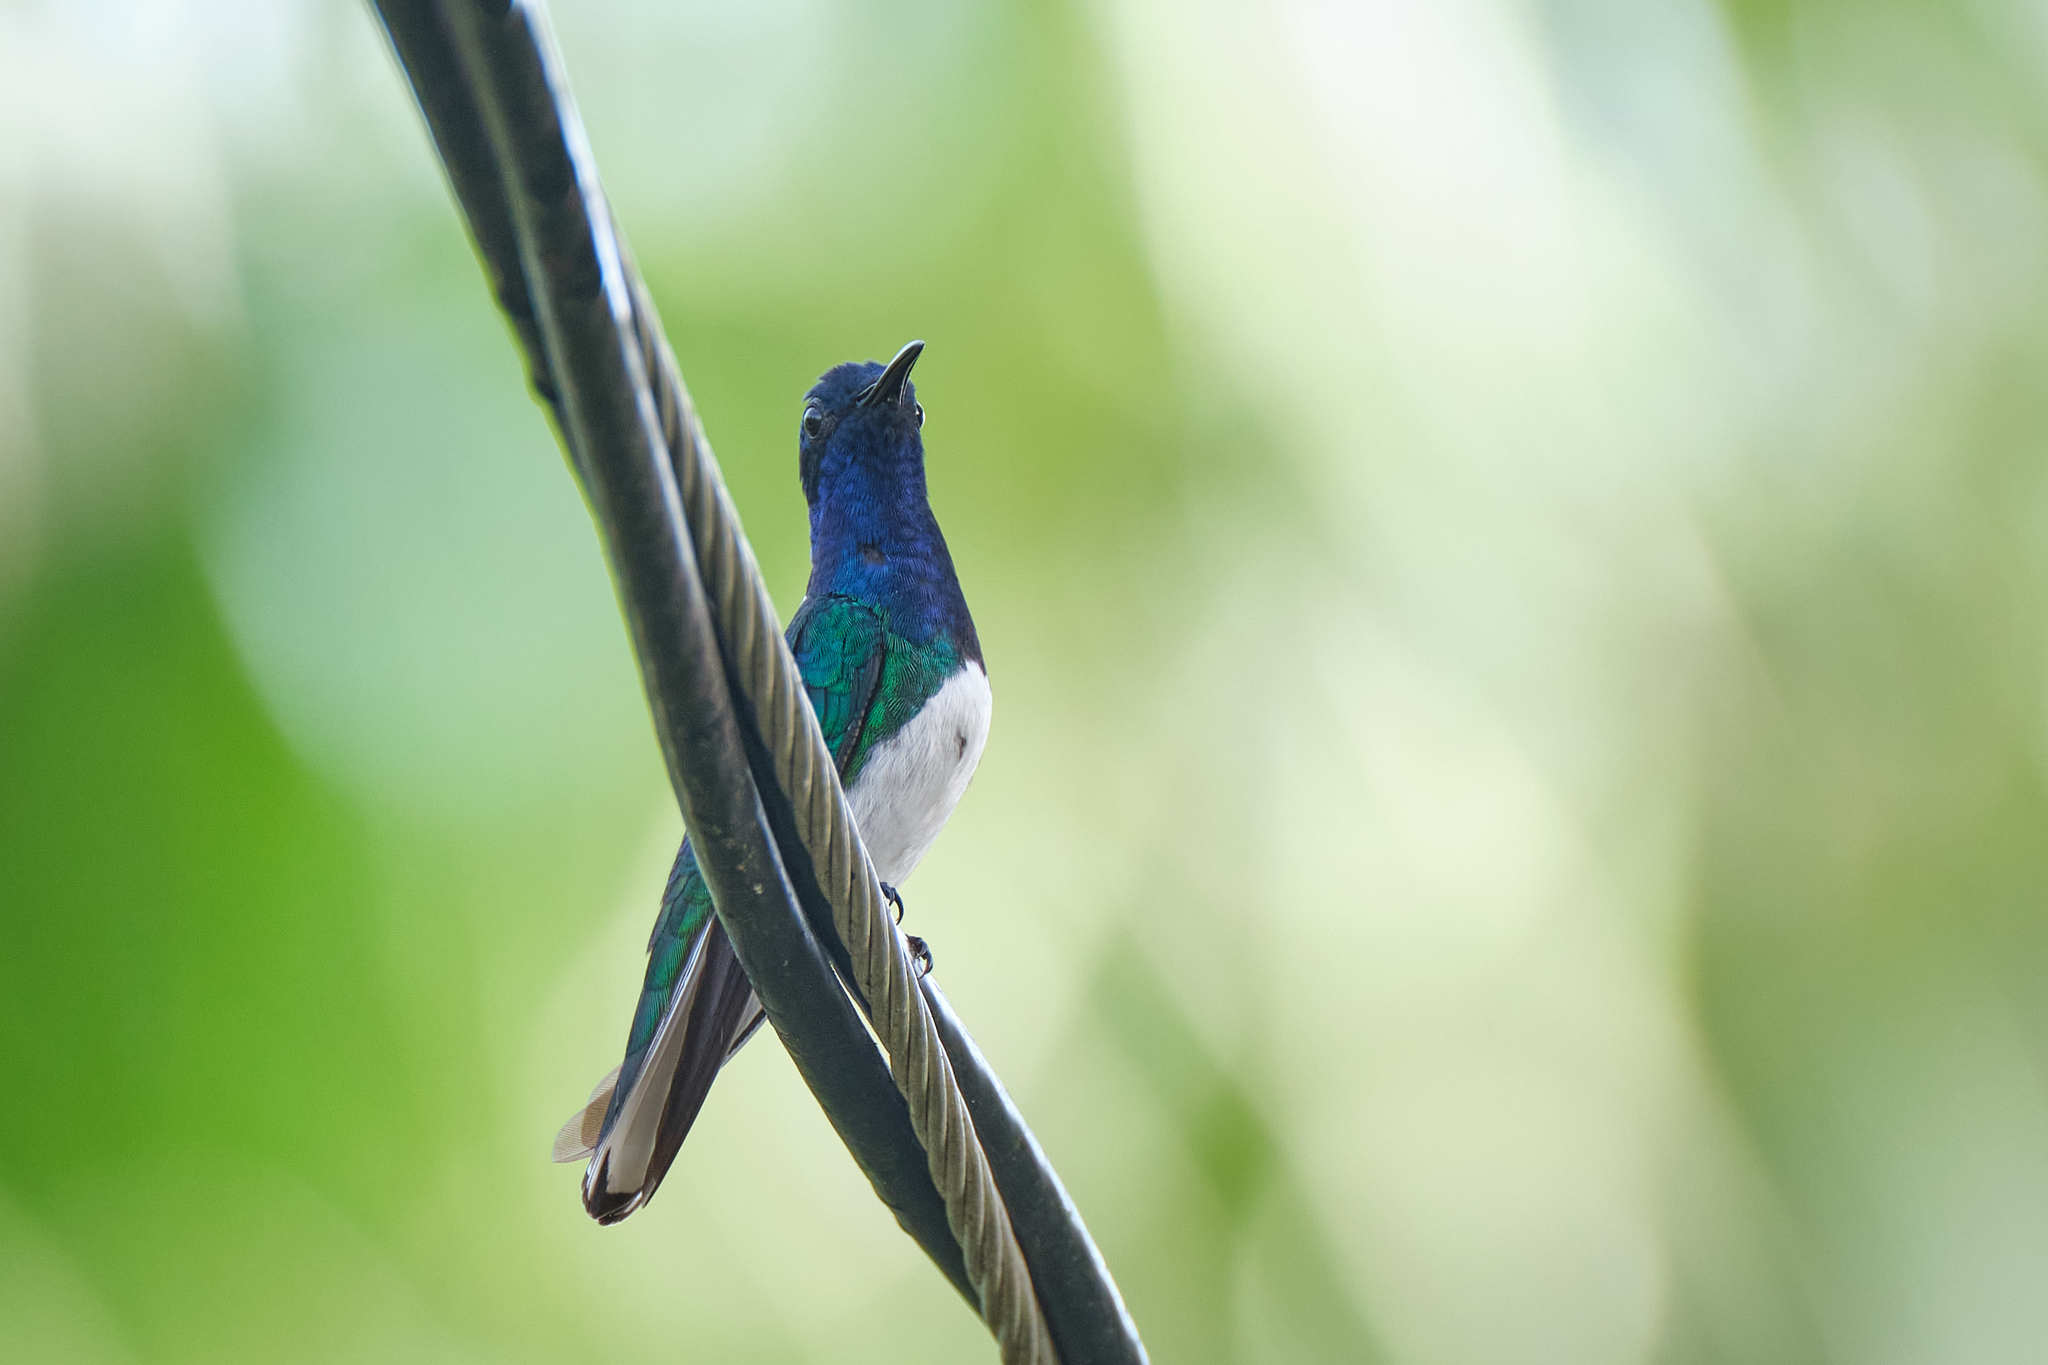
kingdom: Animalia
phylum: Chordata
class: Aves
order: Apodiformes
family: Trochilidae
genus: Florisuga
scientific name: Florisuga mellivora
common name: White-necked jacobin
